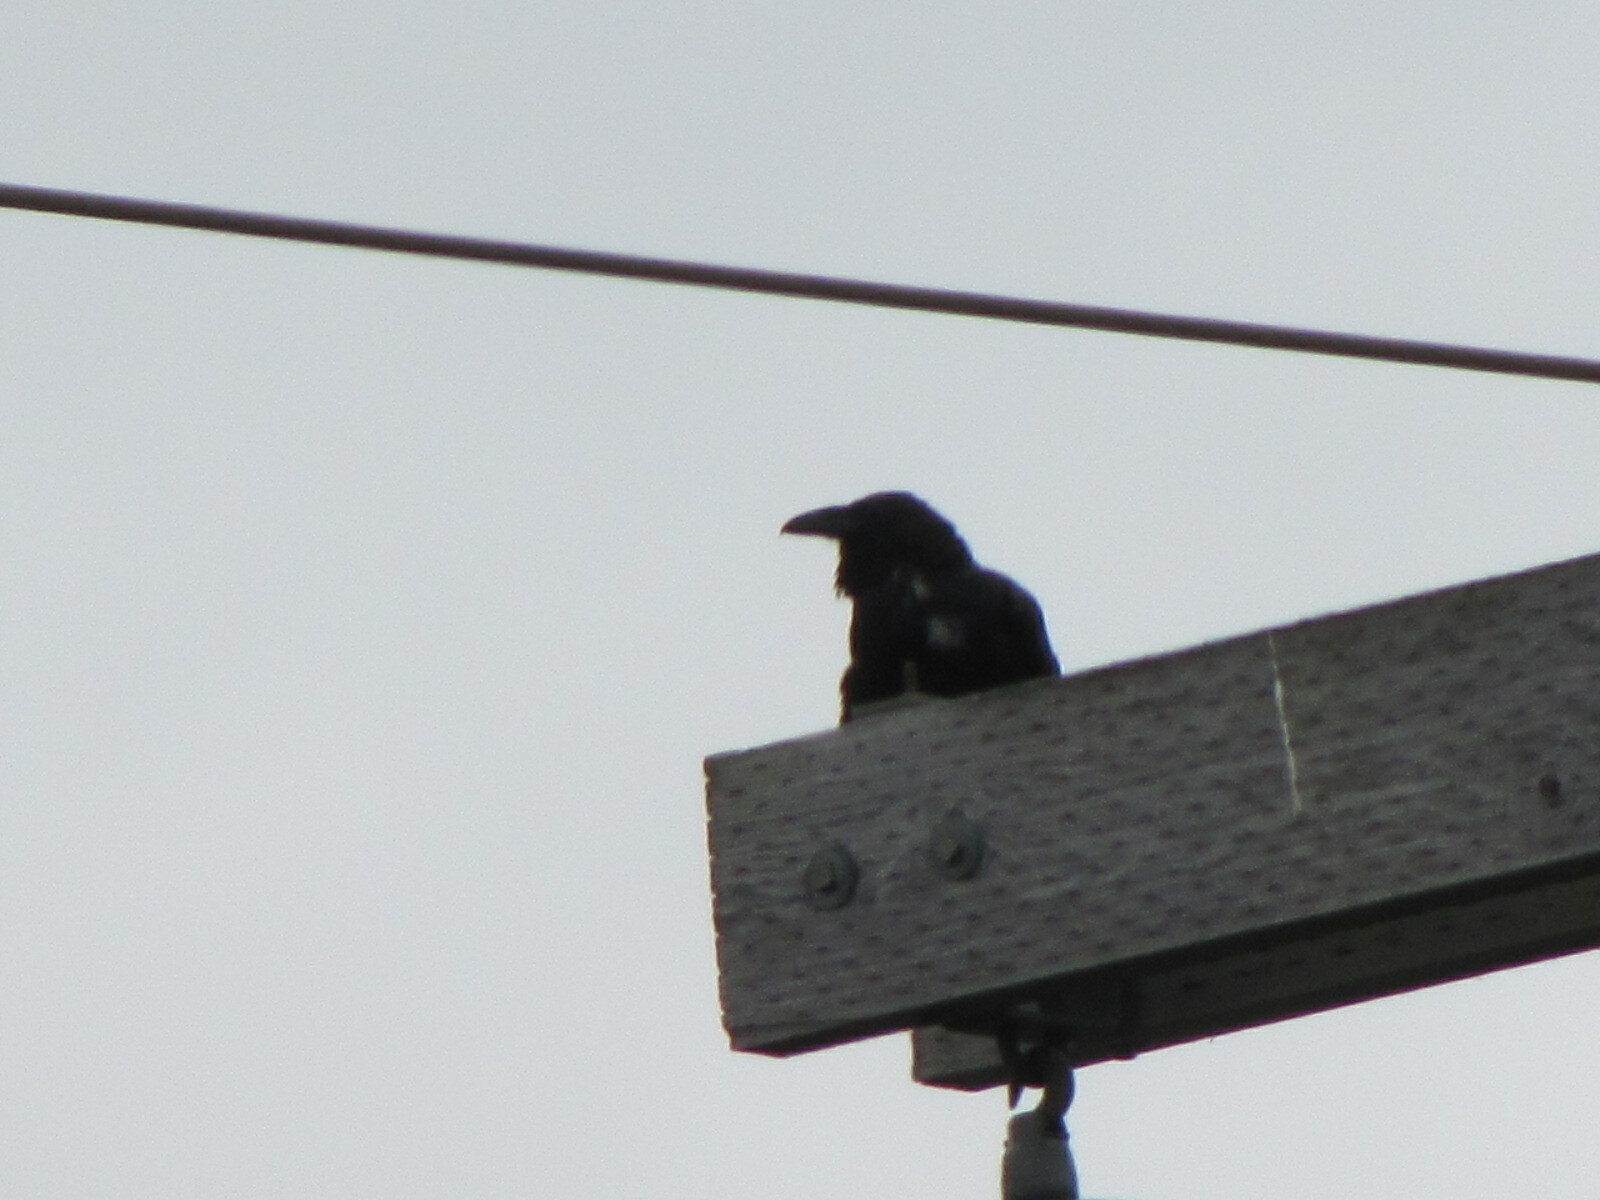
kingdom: Animalia
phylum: Chordata
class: Aves
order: Passeriformes
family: Corvidae
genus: Corvus
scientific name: Corvus corax
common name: Common raven
